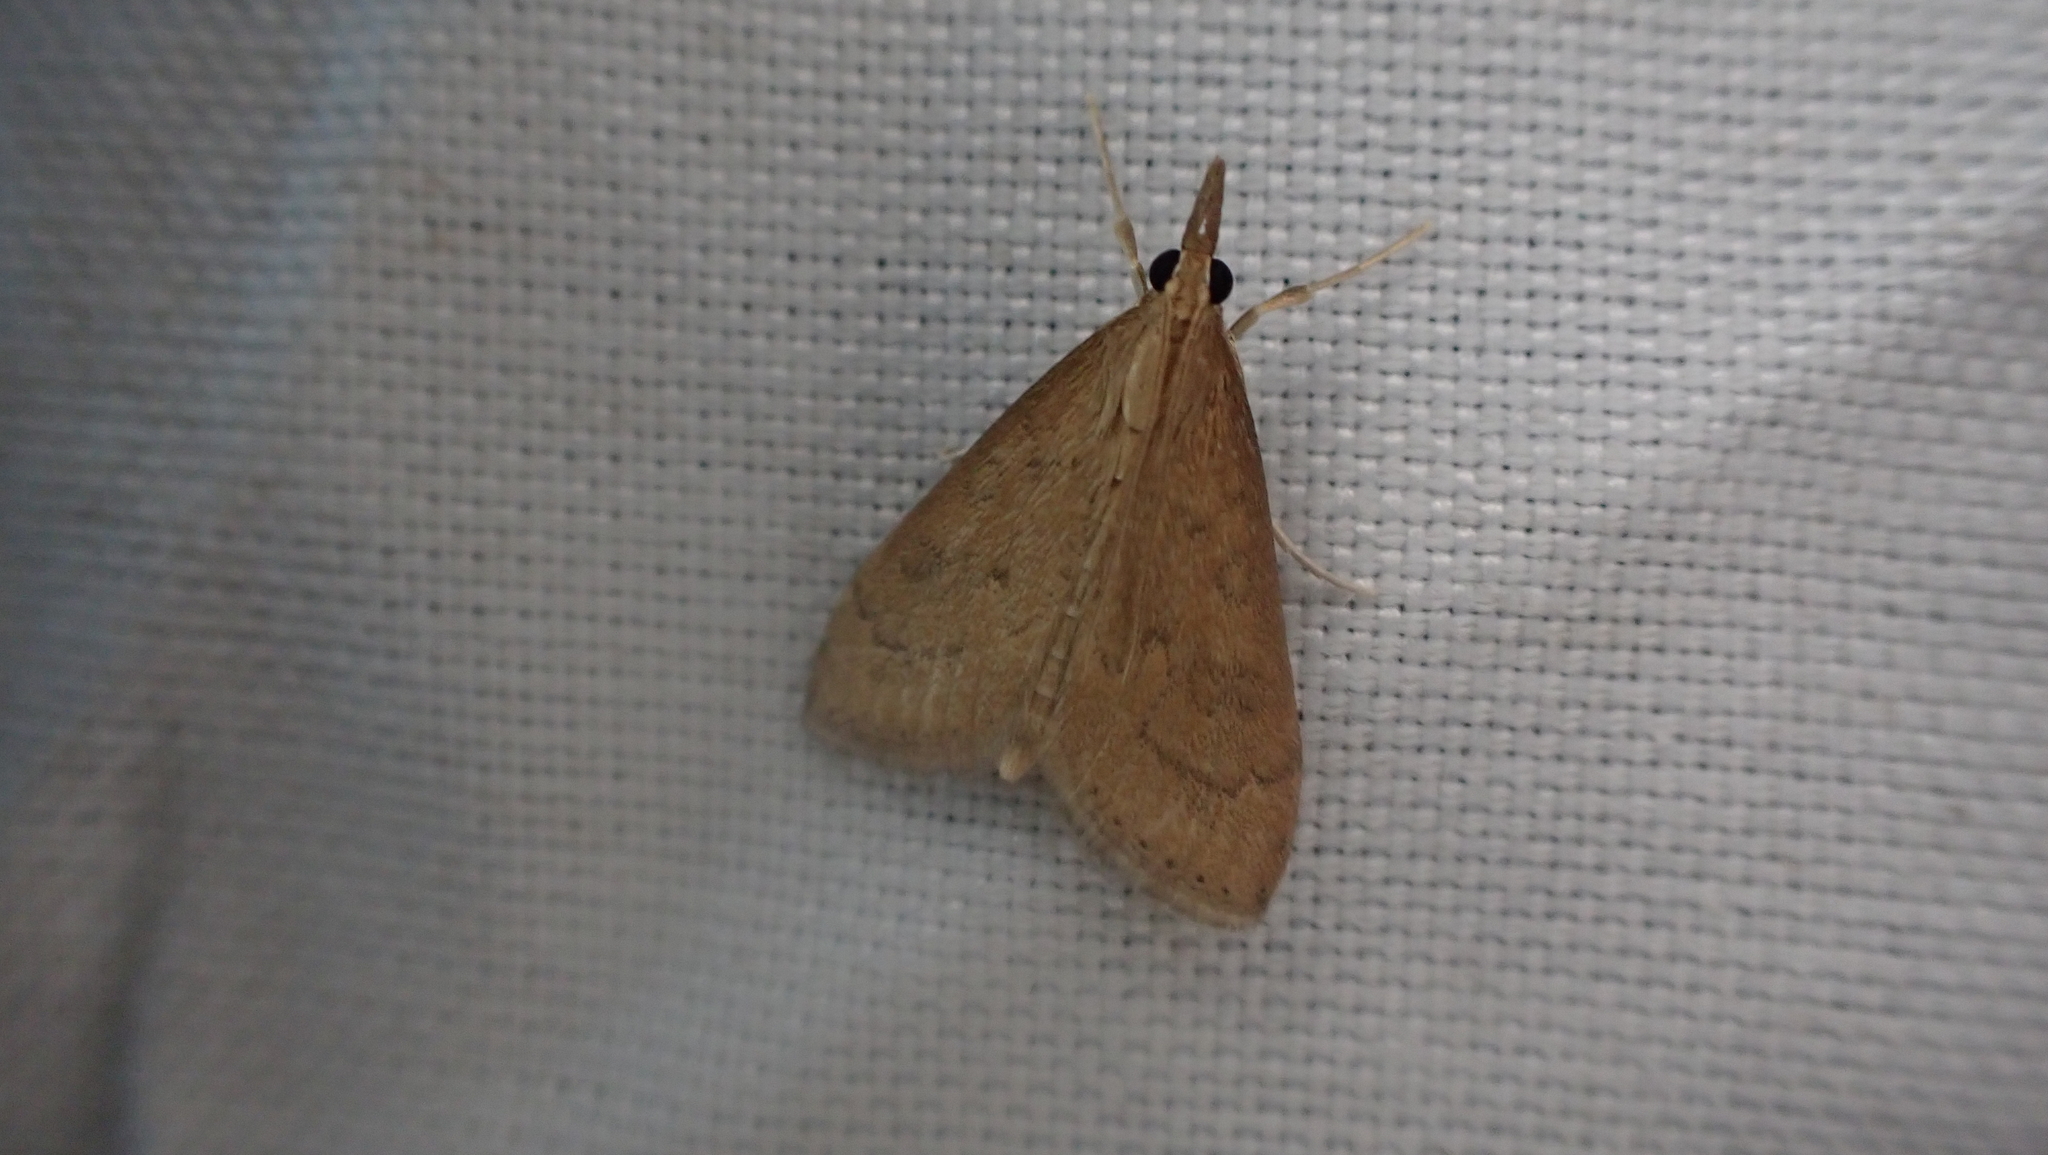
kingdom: Animalia
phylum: Arthropoda
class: Insecta
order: Lepidoptera
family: Crambidae
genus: Udea
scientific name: Udea rubigalis
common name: Celery leaftier moth
